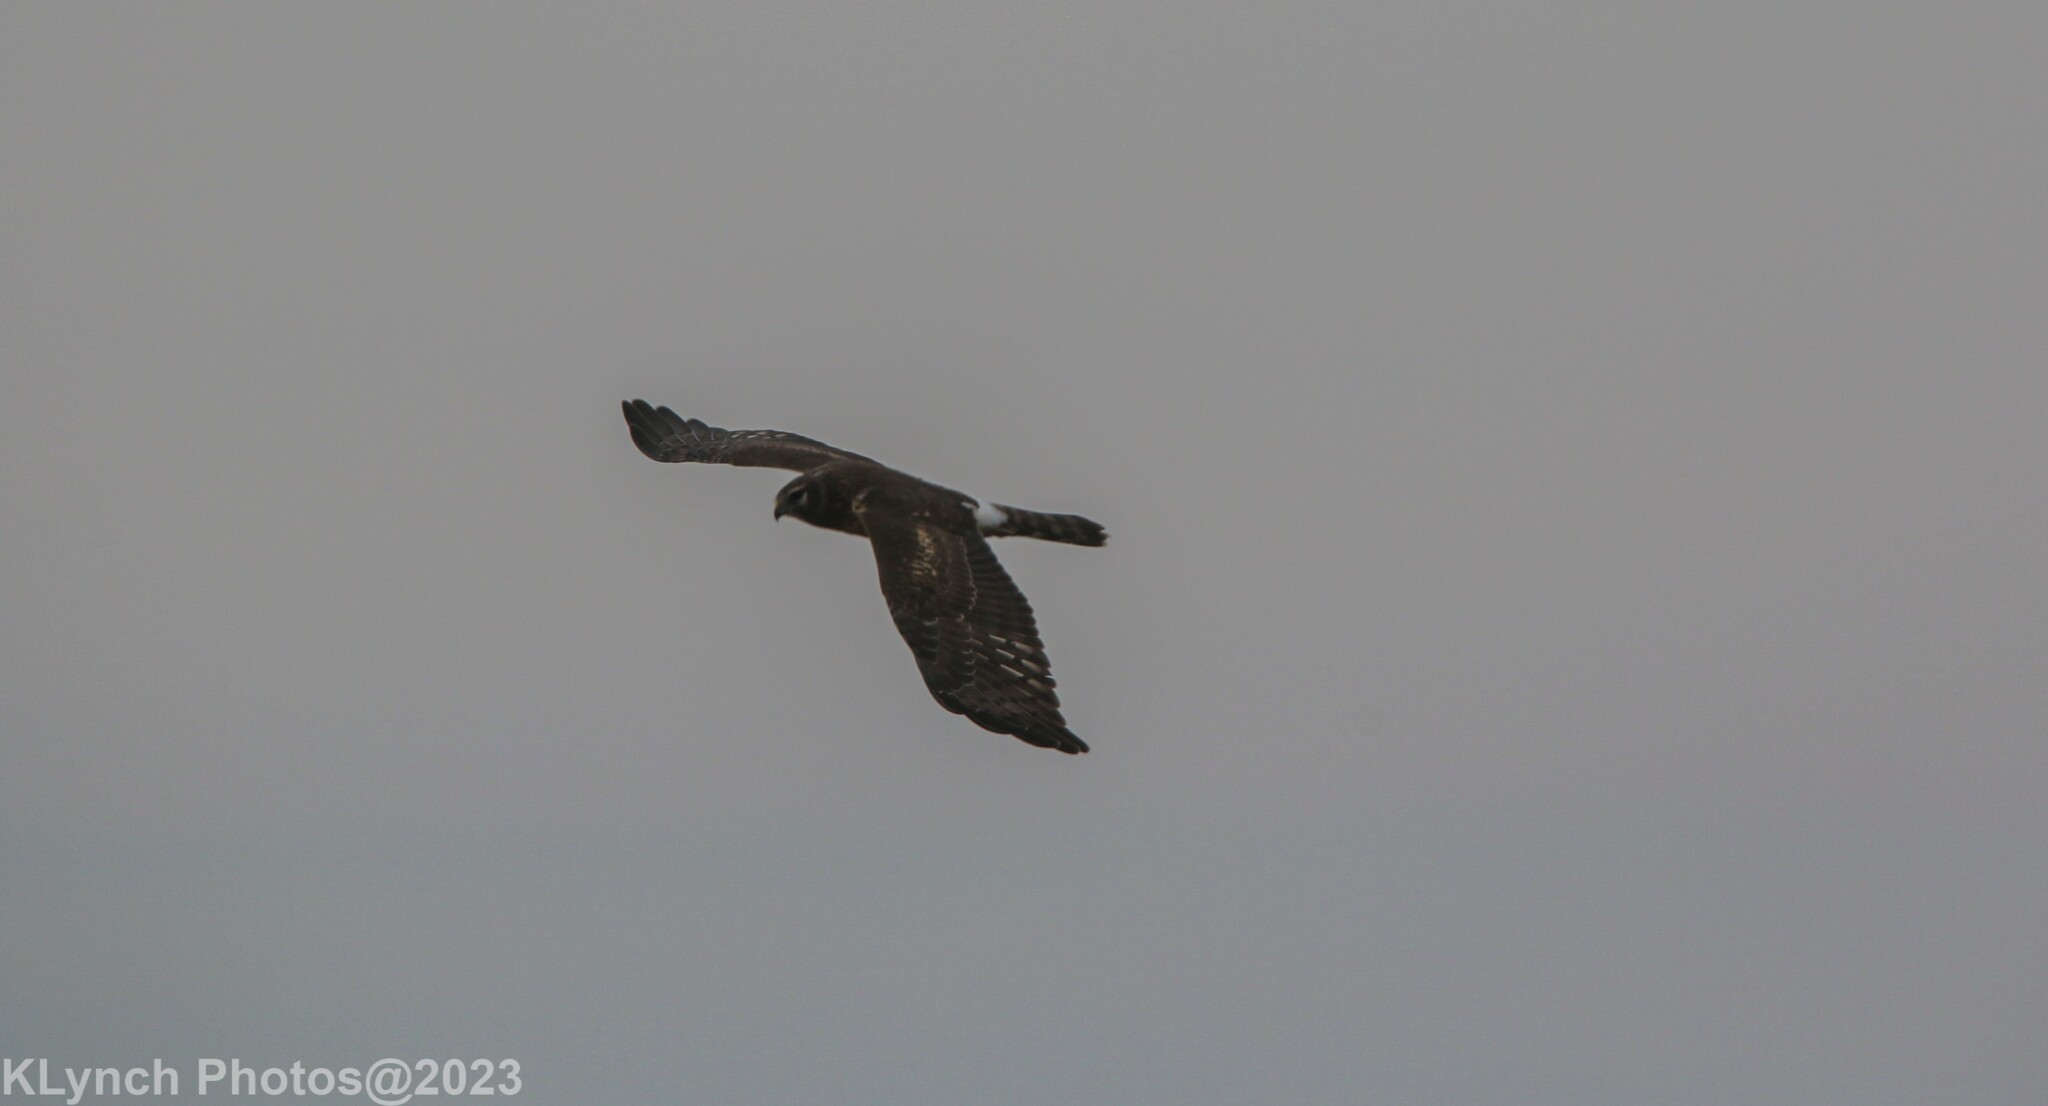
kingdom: Animalia
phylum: Chordata
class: Aves
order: Accipitriformes
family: Accipitridae
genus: Circus
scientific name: Circus cyaneus
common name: Hen harrier
